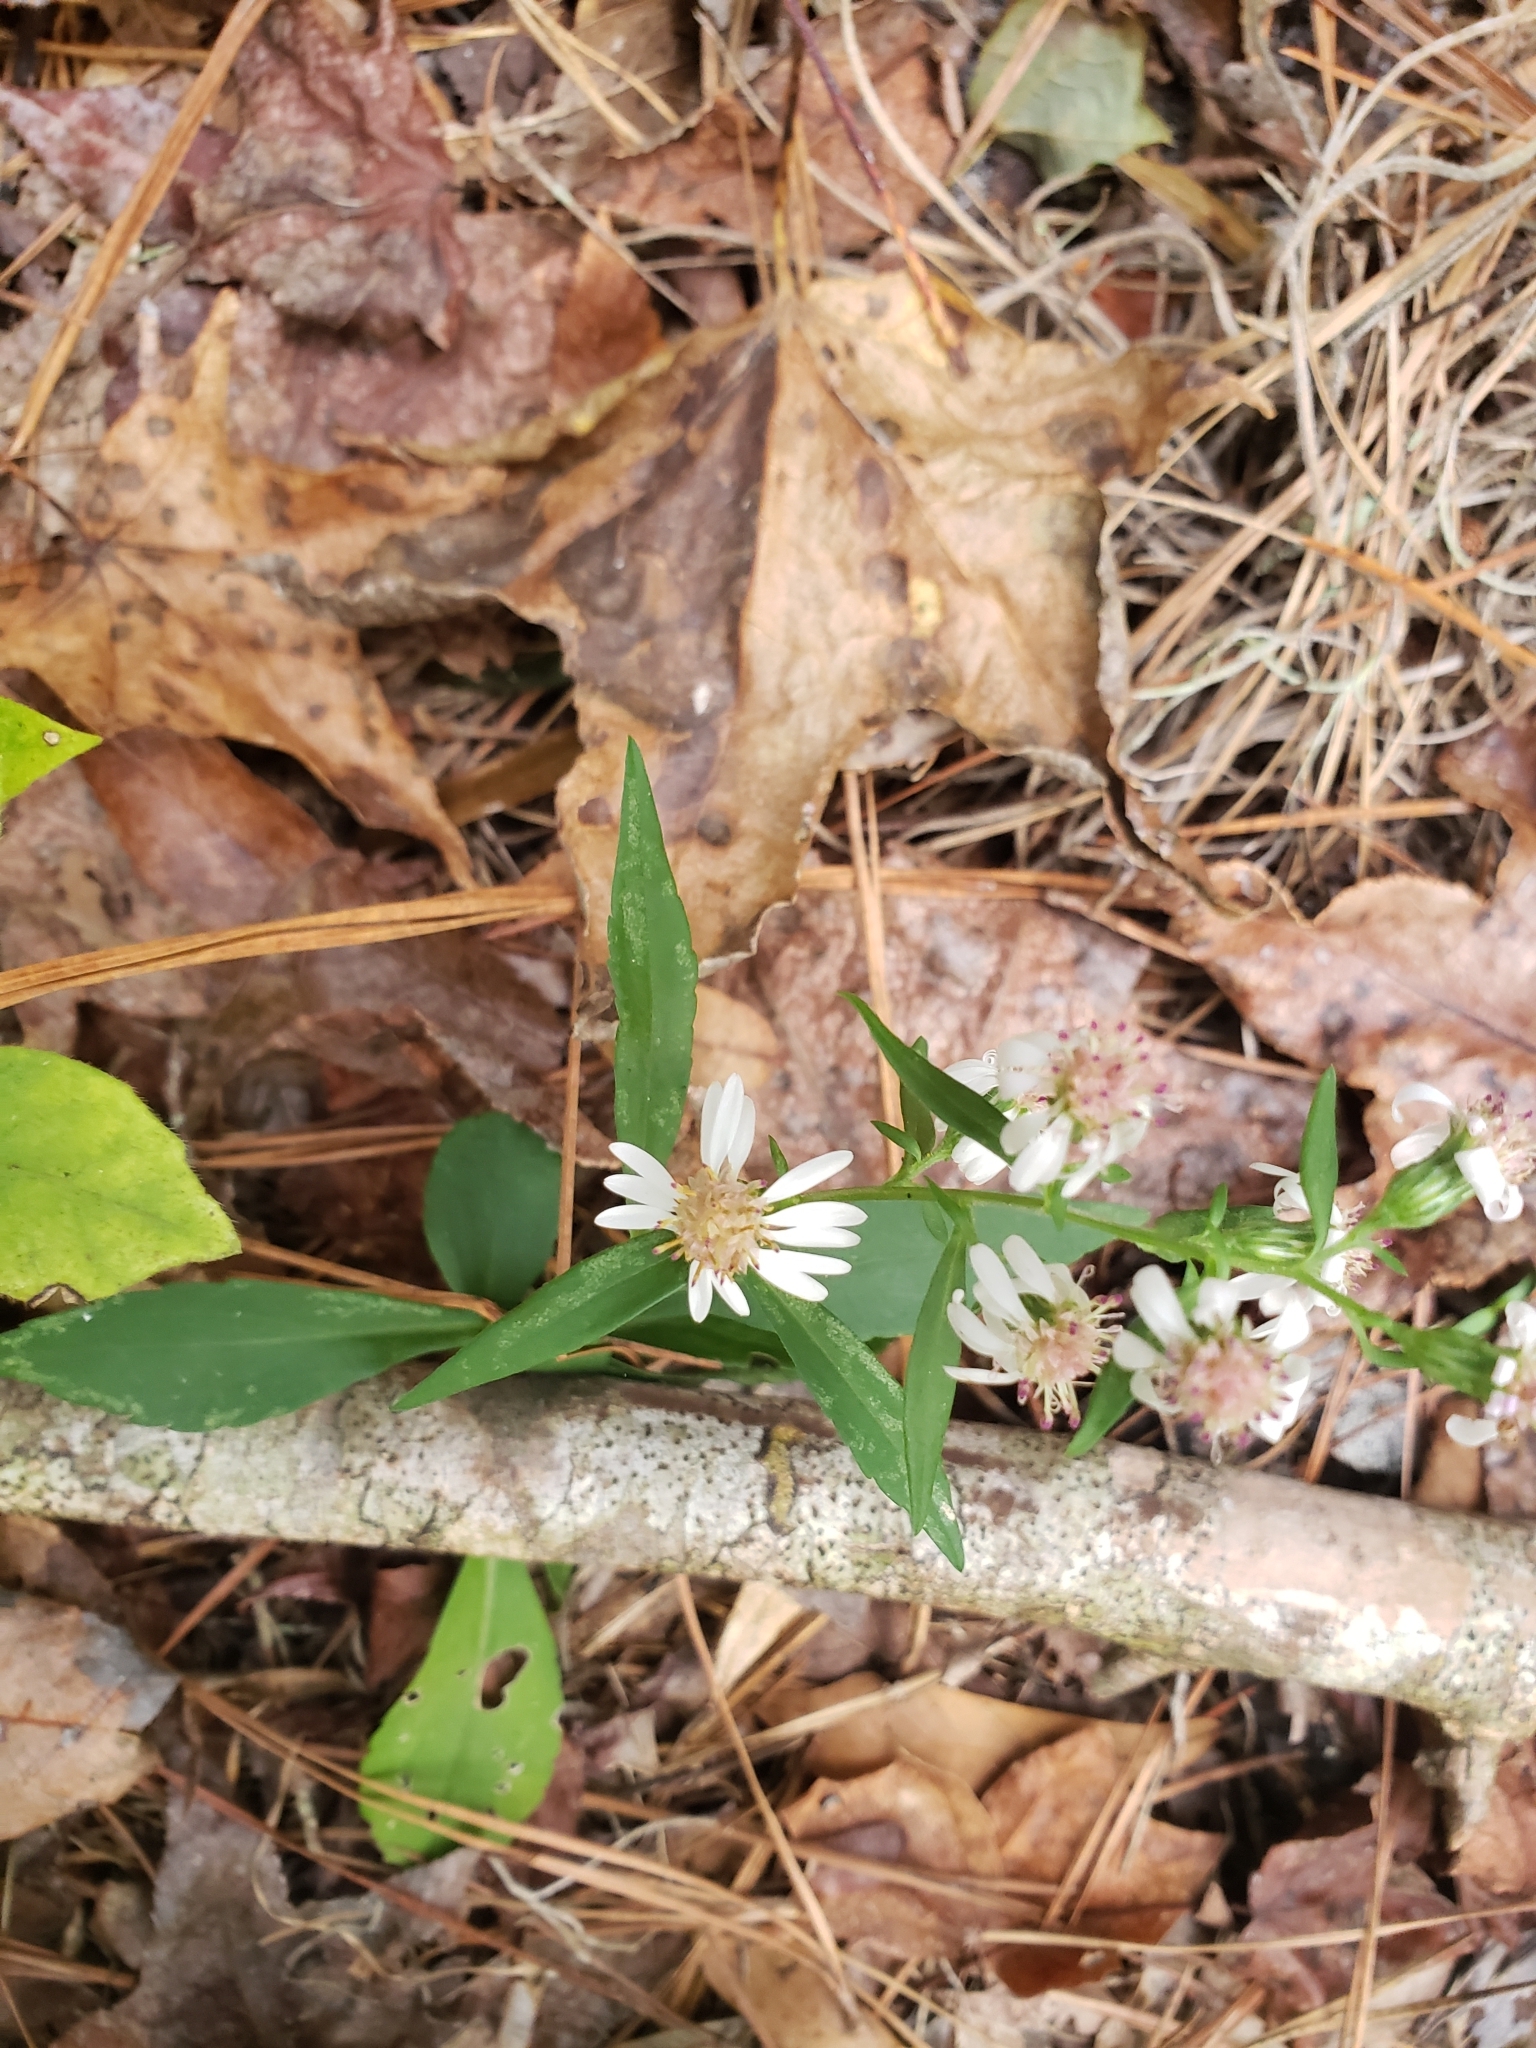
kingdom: Plantae
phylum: Tracheophyta
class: Magnoliopsida
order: Asterales
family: Asteraceae
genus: Symphyotrichum
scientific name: Symphyotrichum lateriflorum
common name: Calico aster
